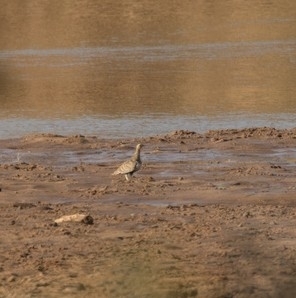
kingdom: Animalia
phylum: Chordata
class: Aves
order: Pteroclidiformes
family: Pteroclididae
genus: Pterocles
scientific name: Pterocles decoratus
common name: Black-faced sandgrouse
